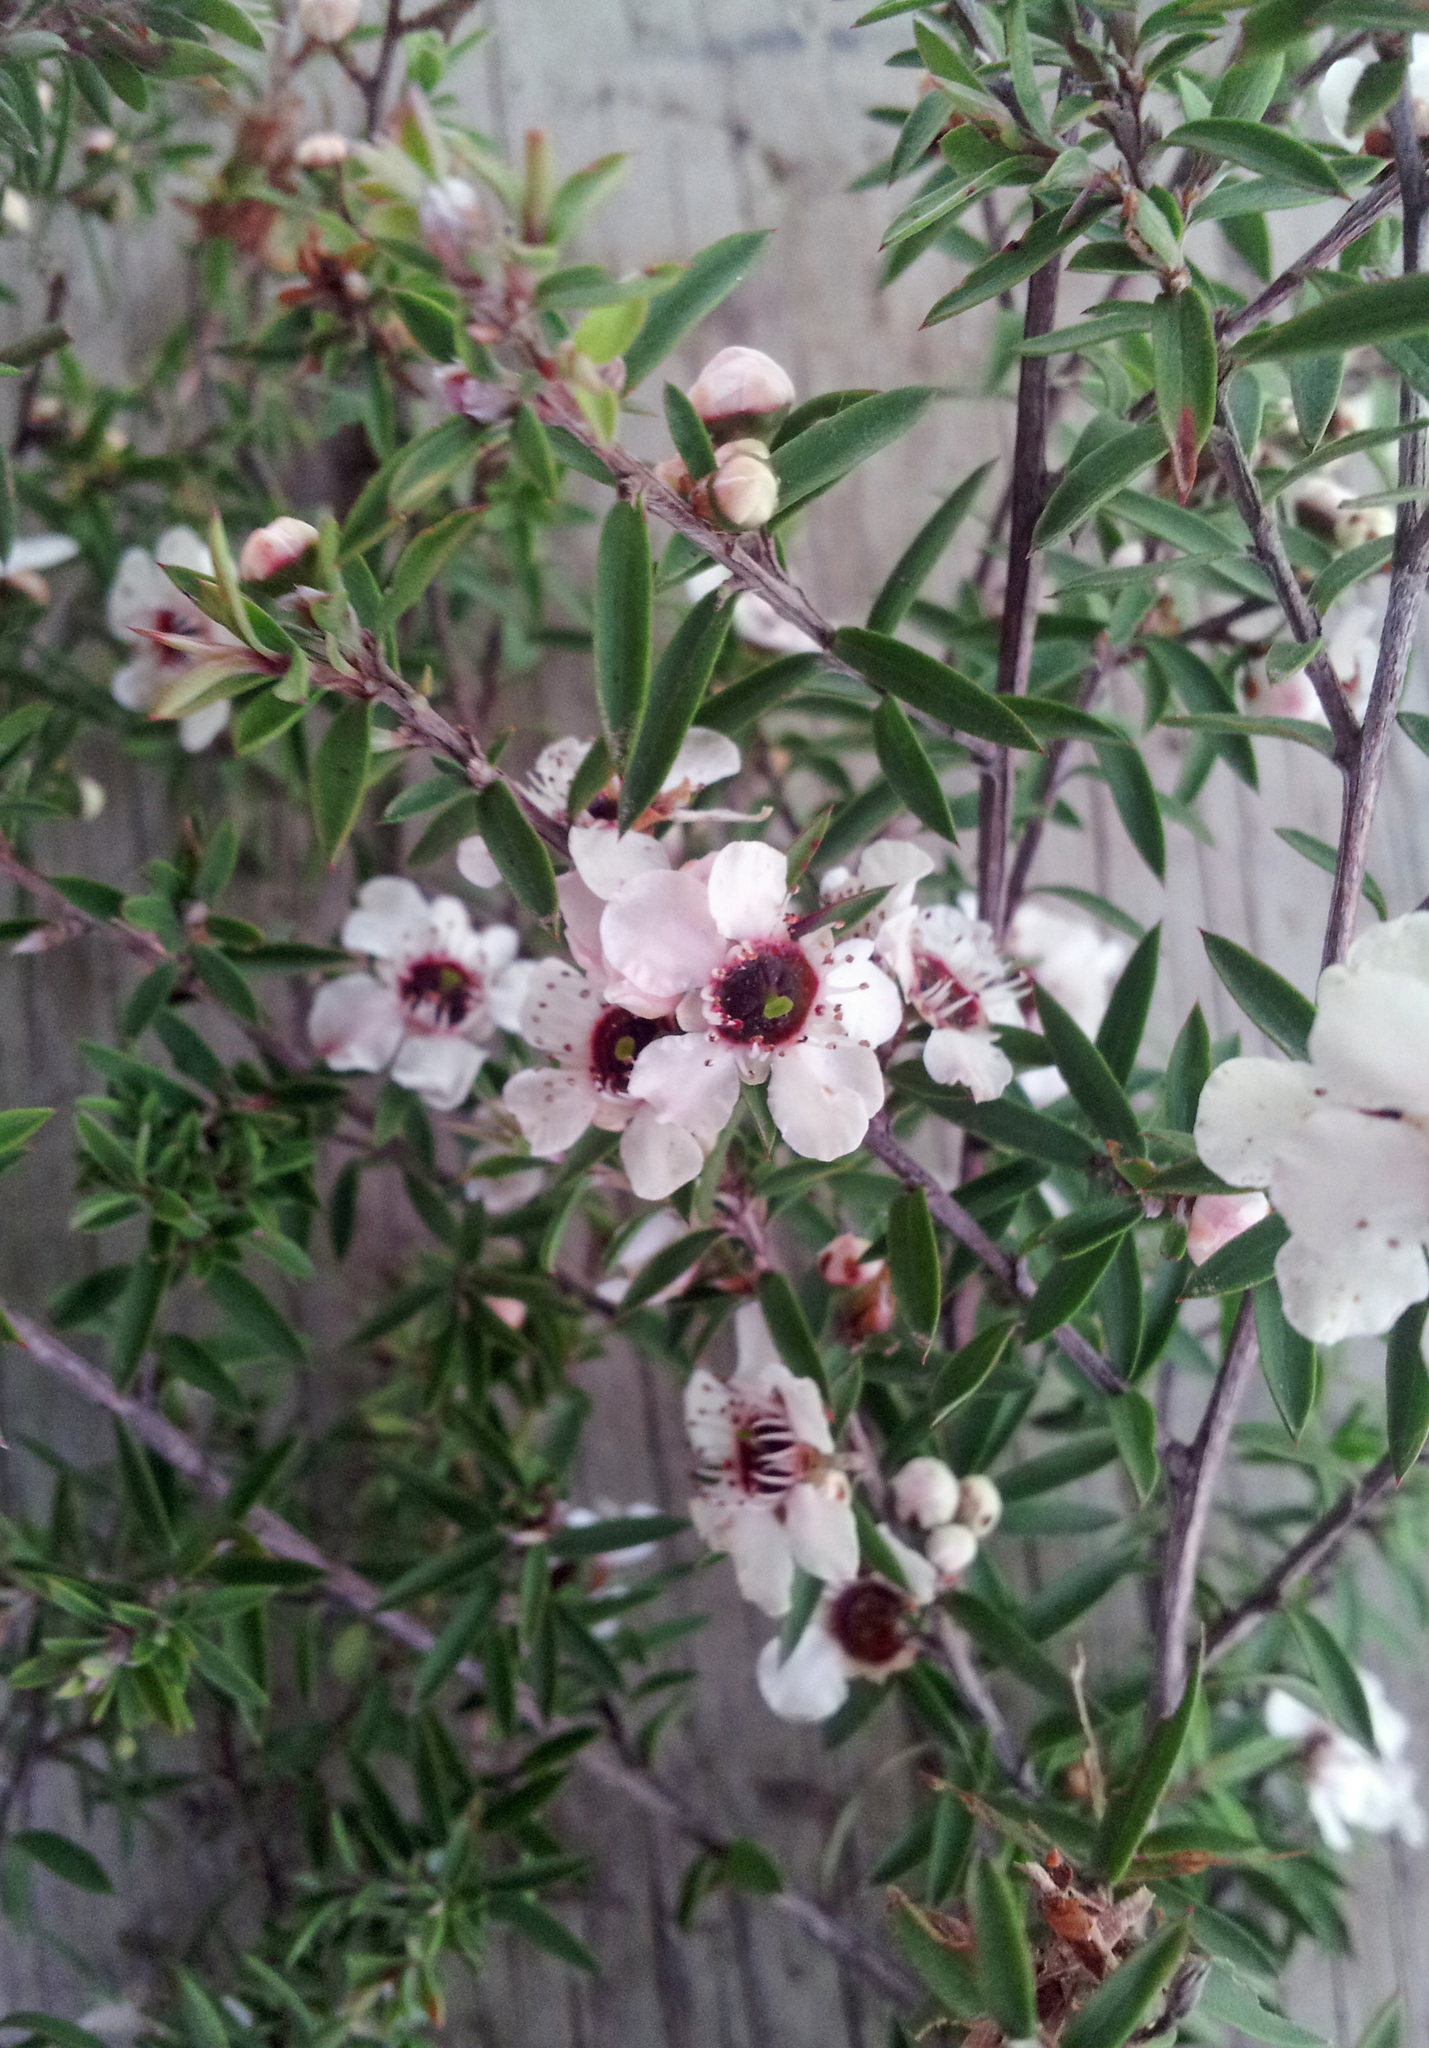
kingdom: Plantae
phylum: Tracheophyta
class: Magnoliopsida
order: Myrtales
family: Myrtaceae
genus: Leptospermum
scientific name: Leptospermum scoparium
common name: Broom tea-tree
